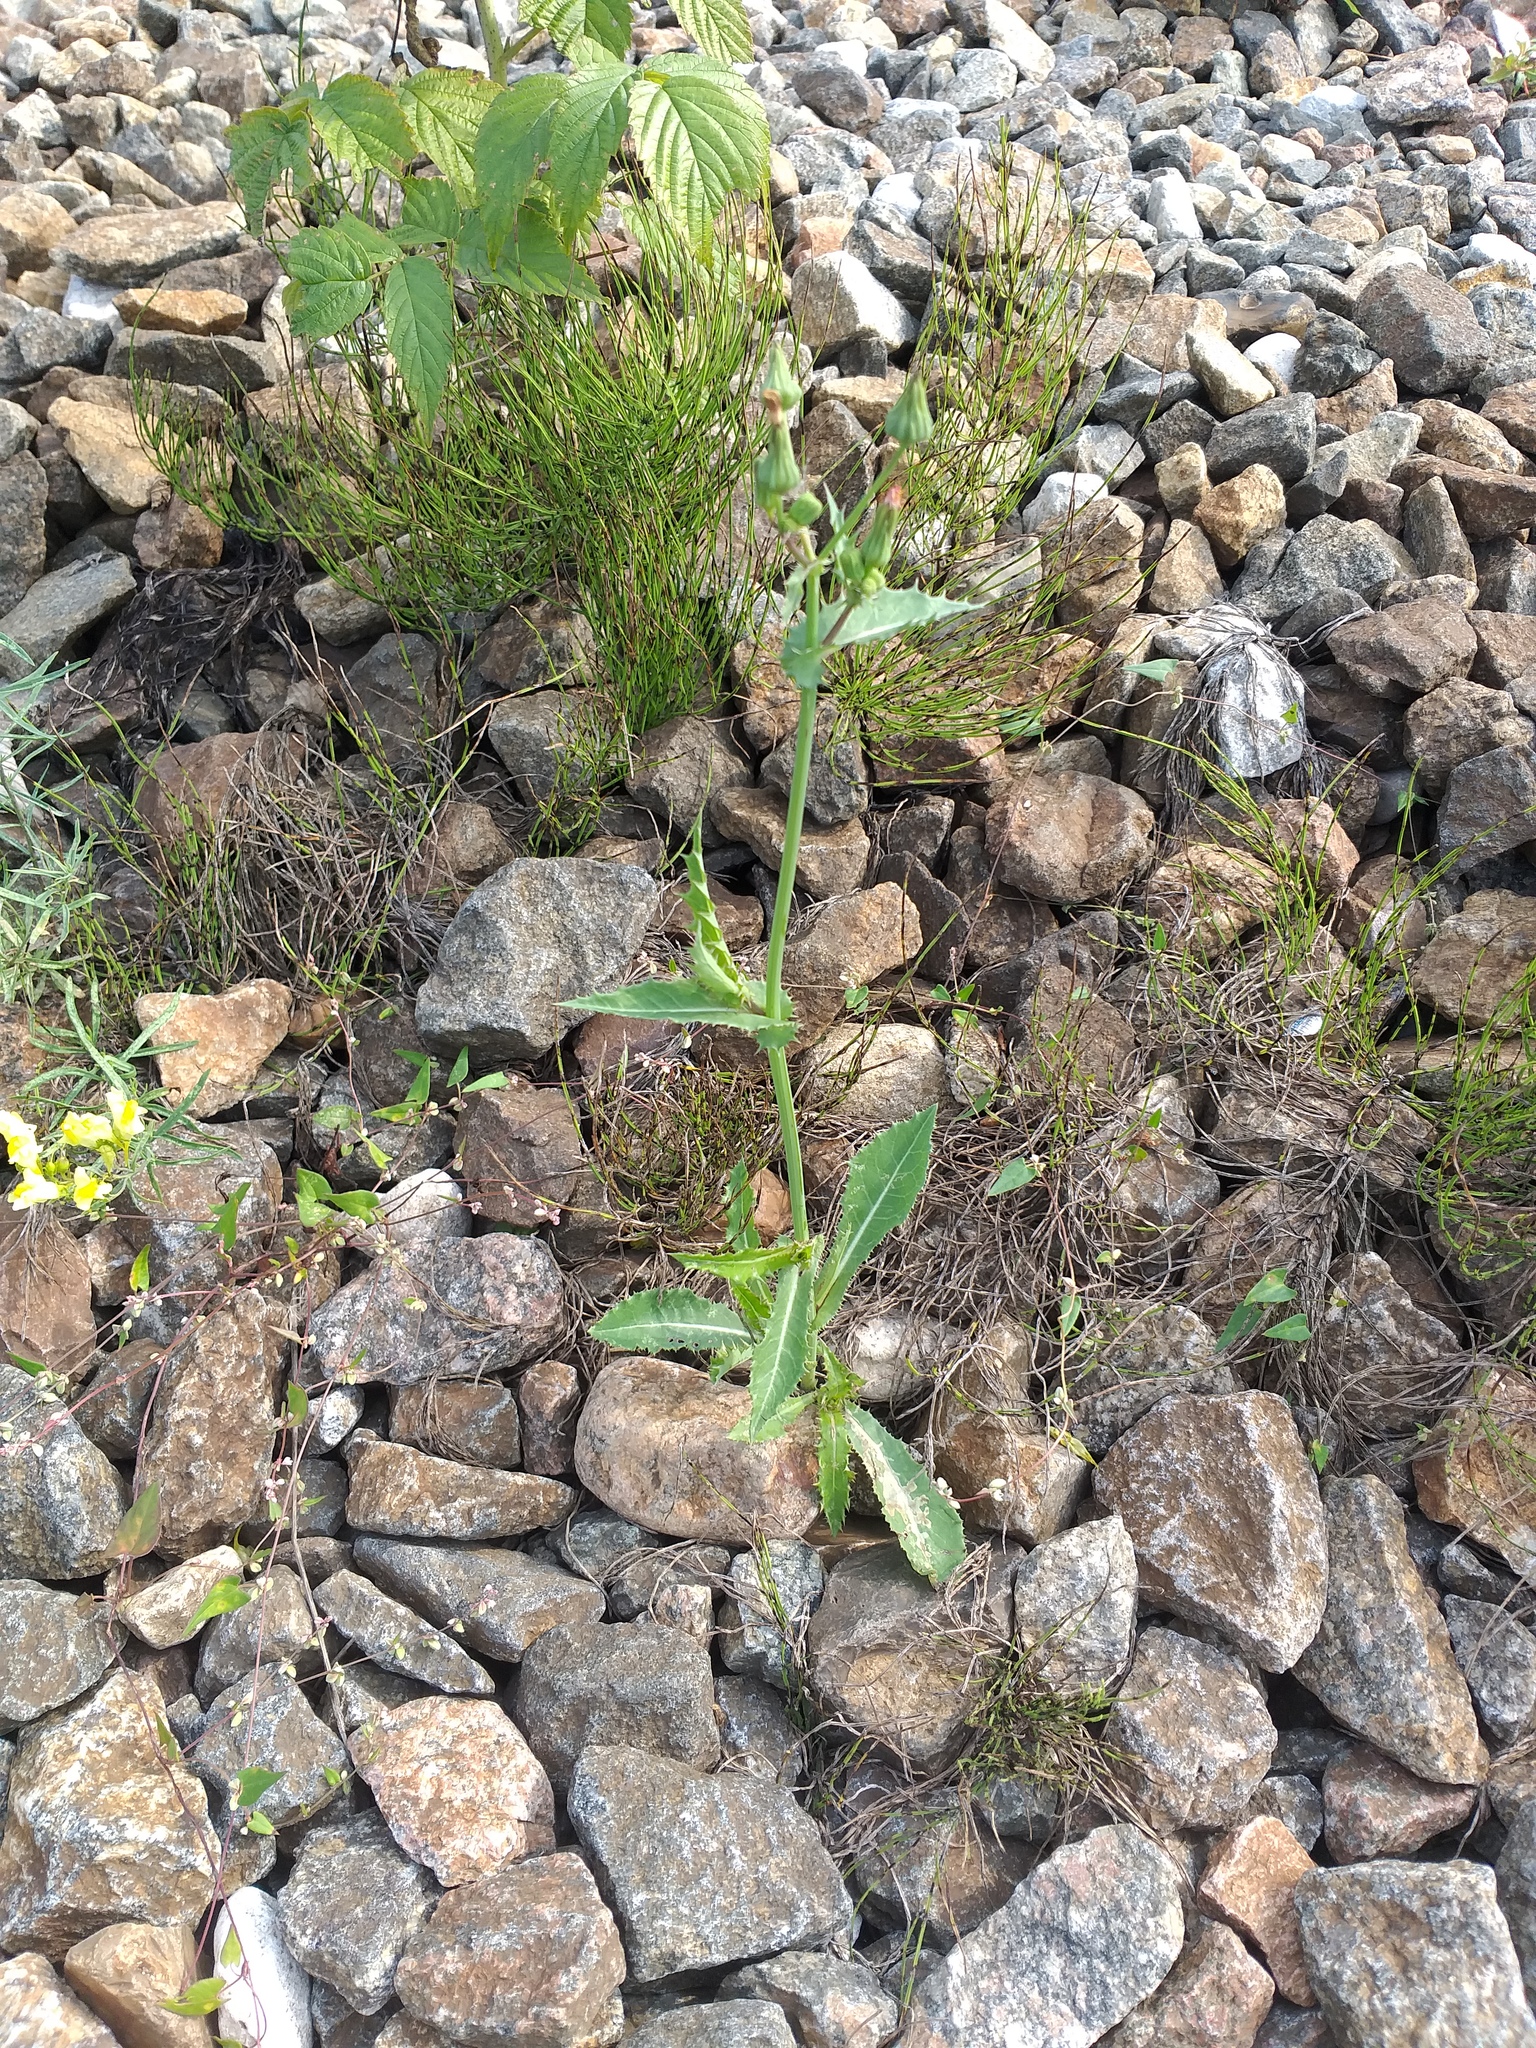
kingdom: Plantae
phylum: Tracheophyta
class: Magnoliopsida
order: Asterales
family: Asteraceae
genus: Sonchus
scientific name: Sonchus asper
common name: Prickly sow-thistle
